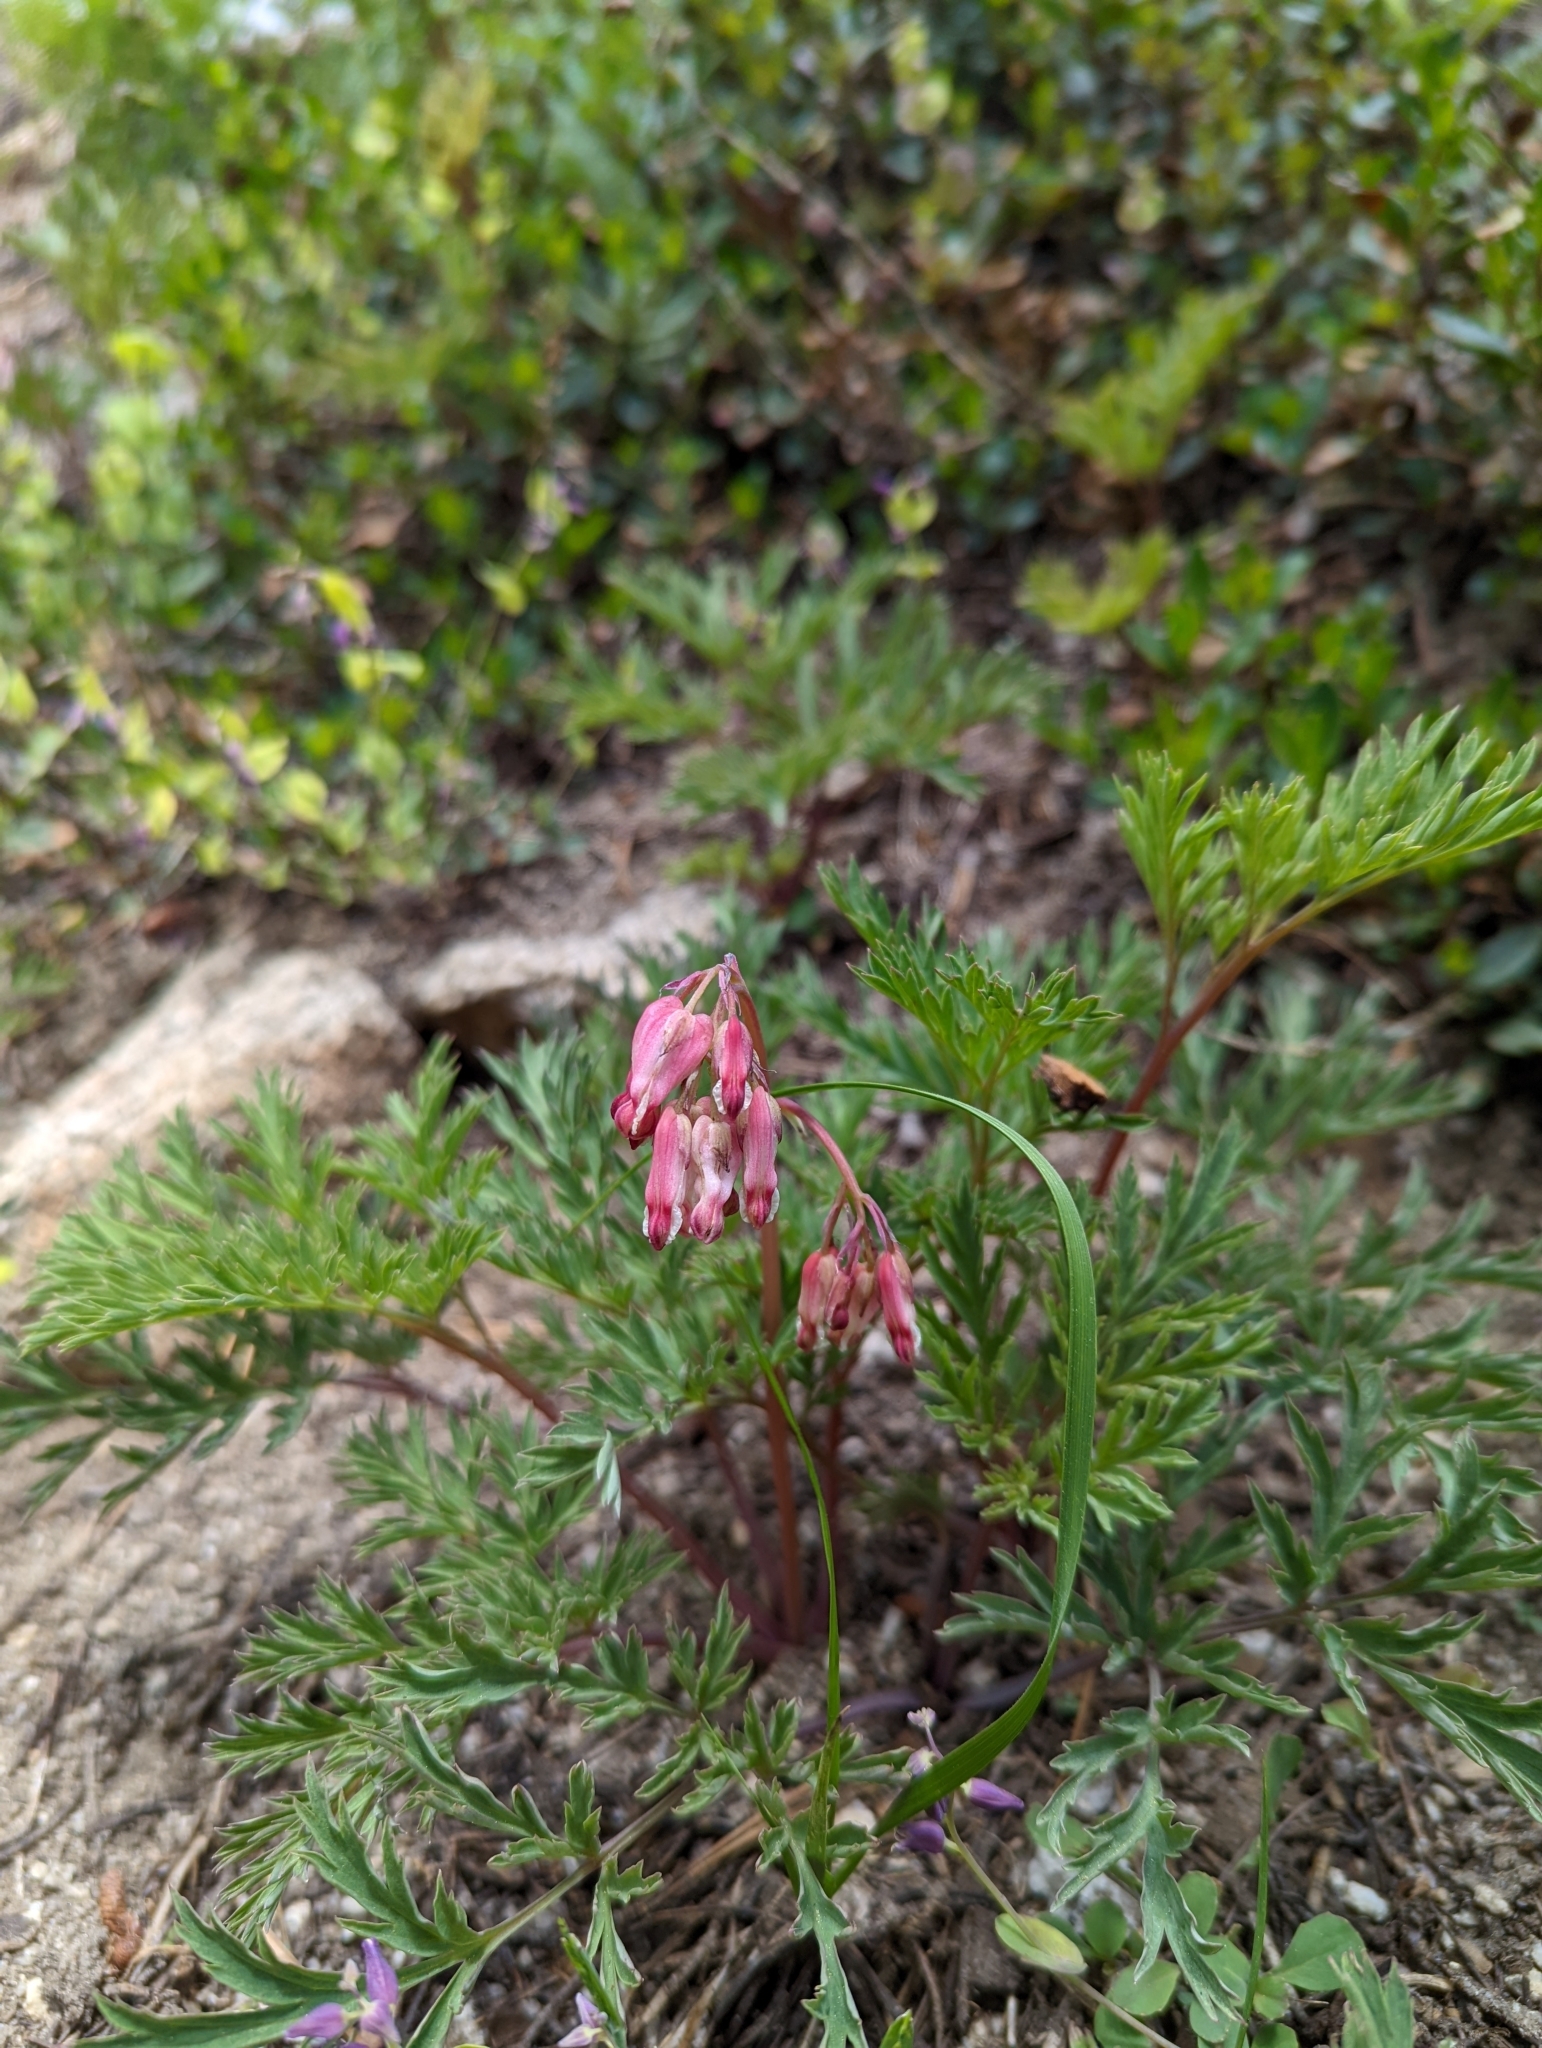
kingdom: Plantae
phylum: Tracheophyta
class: Magnoliopsida
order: Ranunculales
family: Papaveraceae
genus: Dicentra
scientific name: Dicentra formosa
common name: Bleeding-heart
